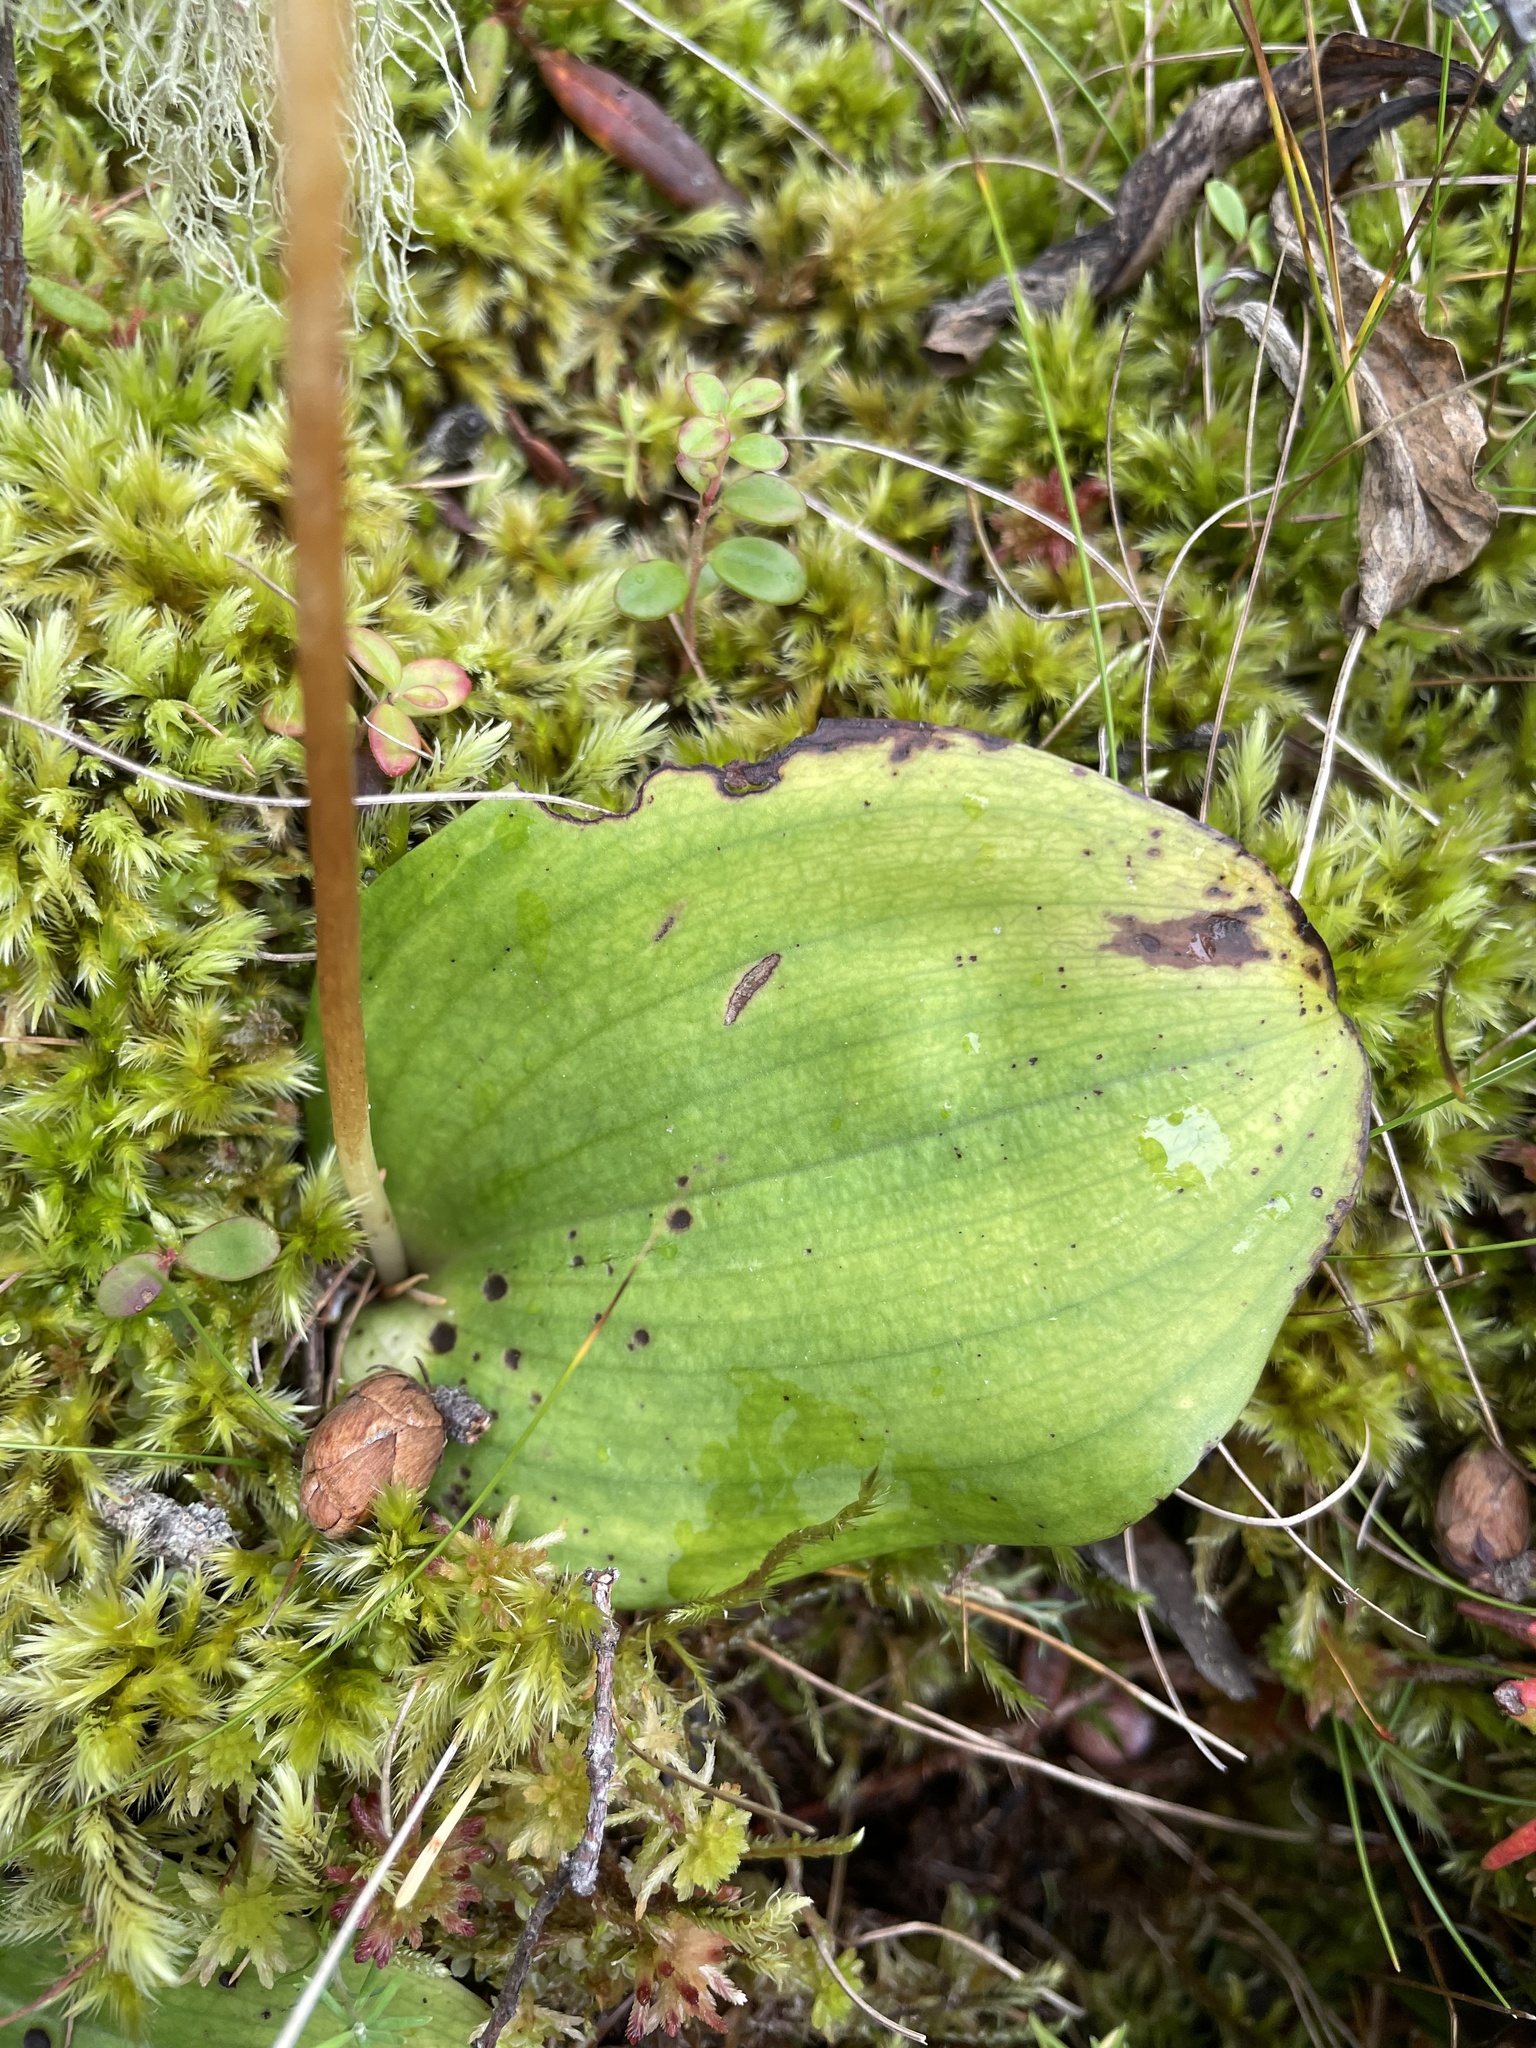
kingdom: Plantae
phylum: Tracheophyta
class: Liliopsida
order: Asparagales
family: Orchidaceae
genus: Galearis
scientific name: Galearis rotundifolia
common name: One-leaved orchis
